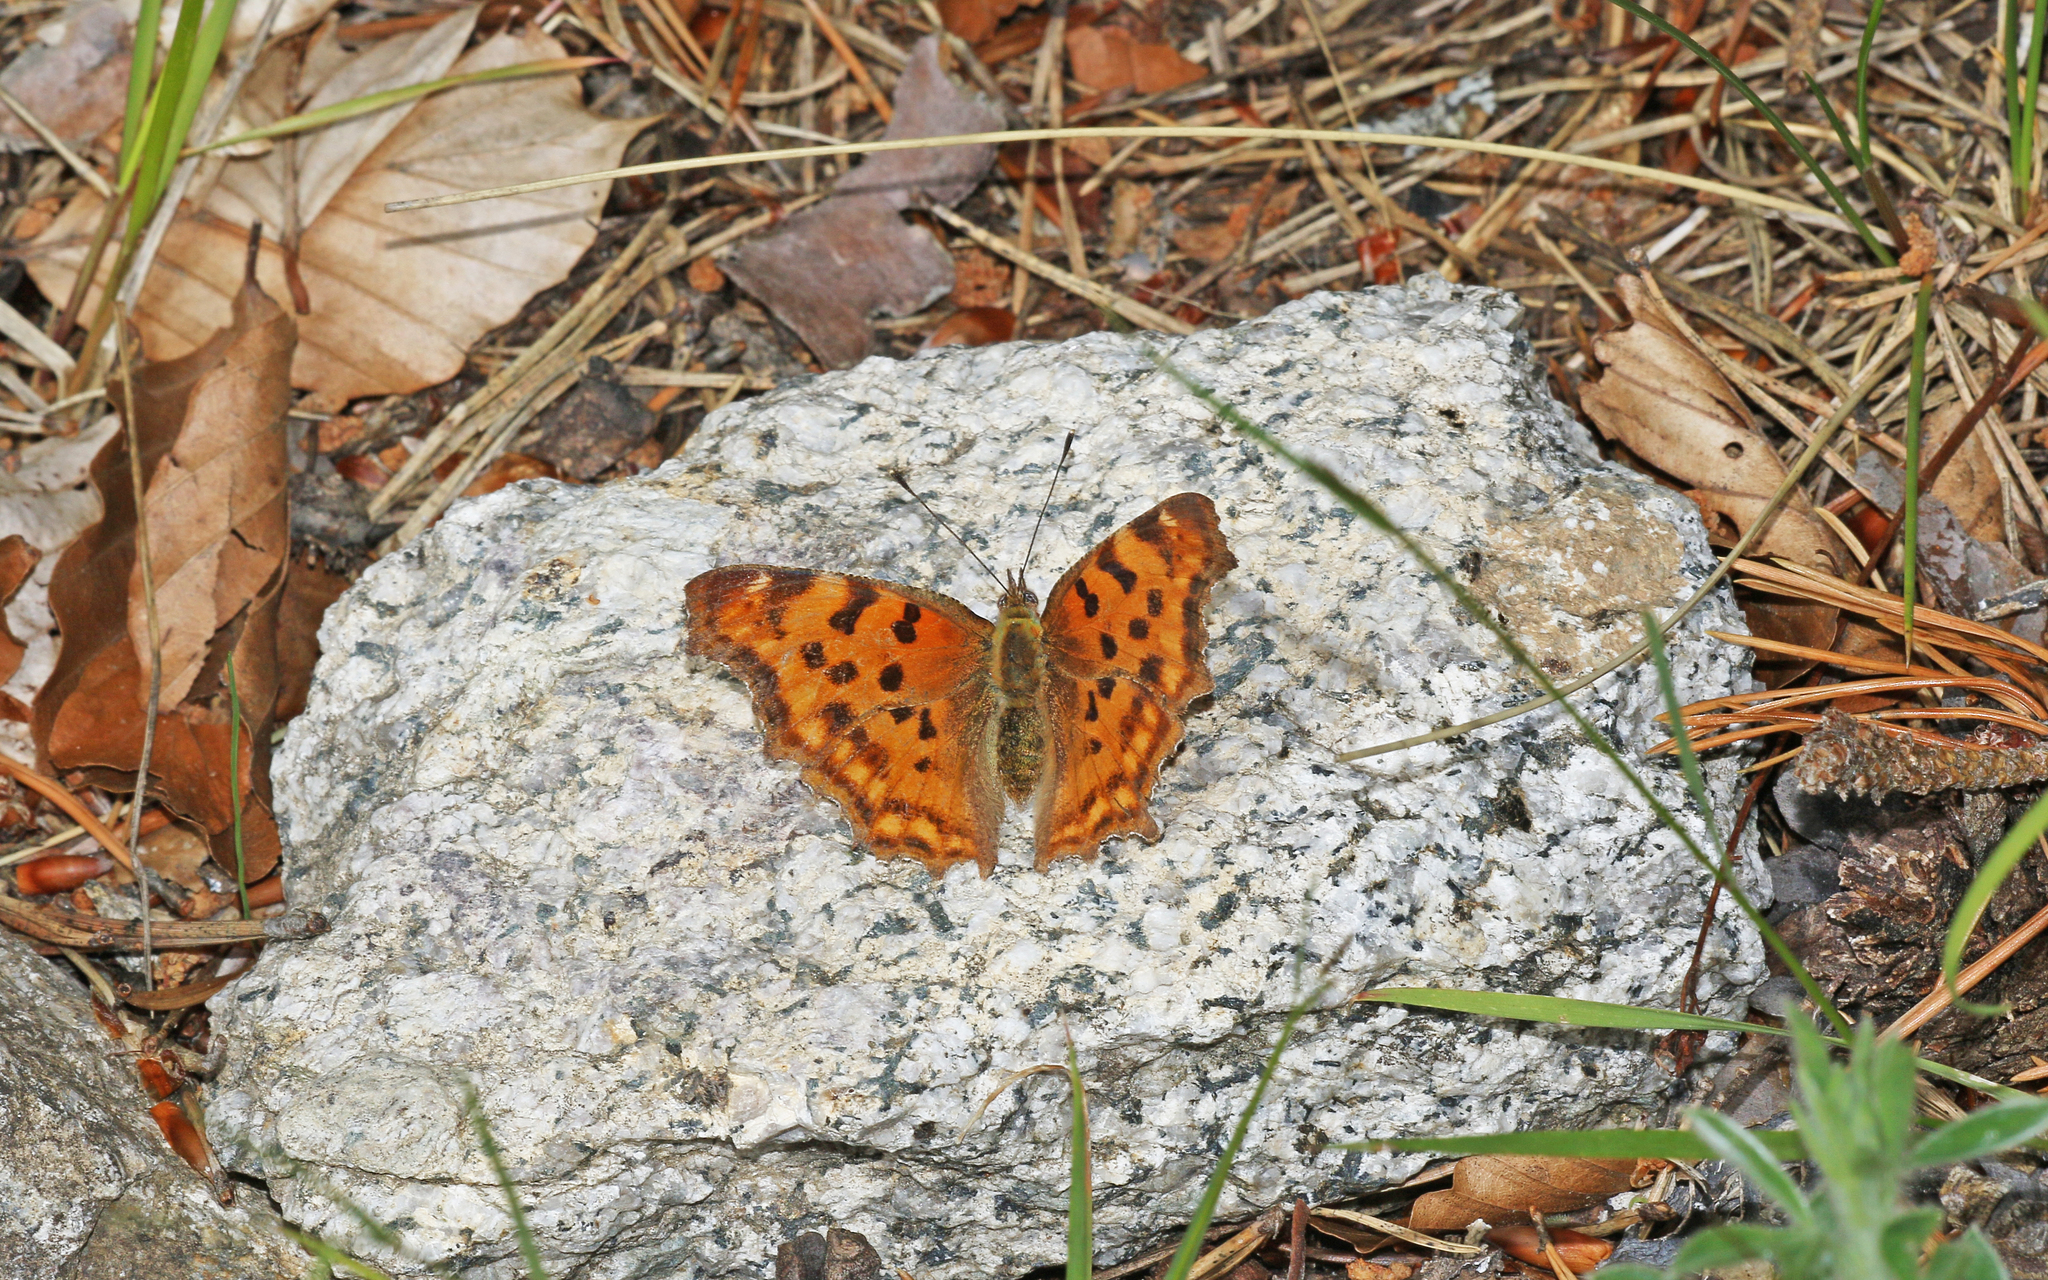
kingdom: Animalia
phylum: Arthropoda
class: Insecta
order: Lepidoptera
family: Nymphalidae
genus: Polygonia
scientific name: Polygonia c-album
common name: Comma
